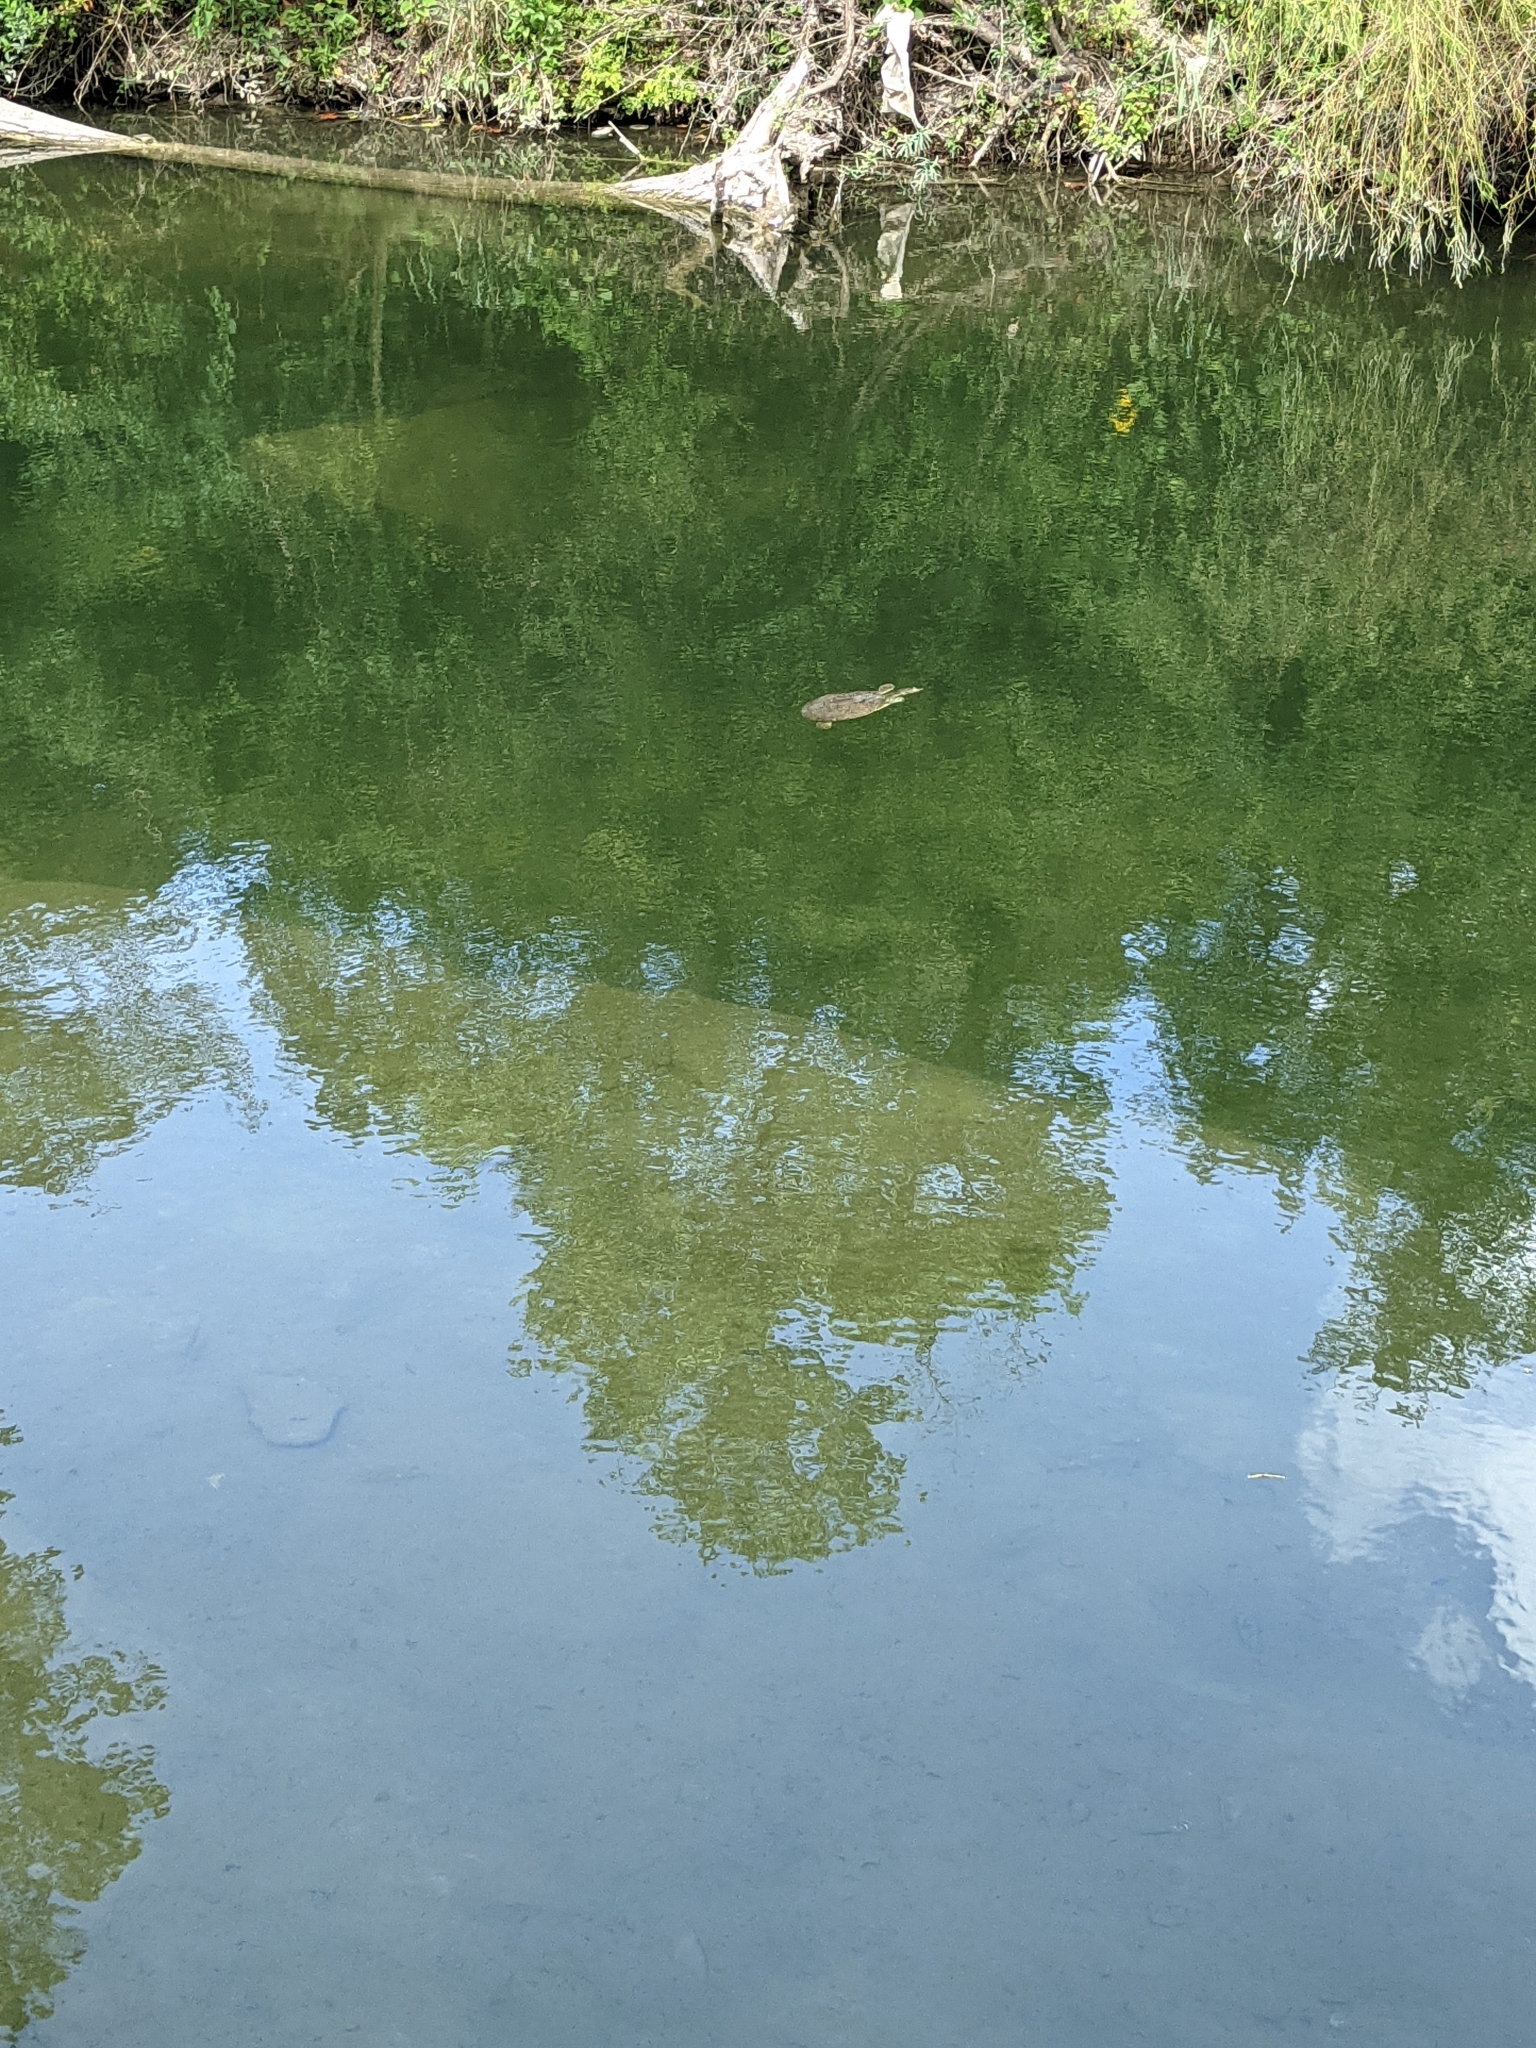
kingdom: Animalia
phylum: Chordata
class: Testudines
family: Trionychidae
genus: Apalone
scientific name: Apalone spinifera
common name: Spiny softshell turtle
